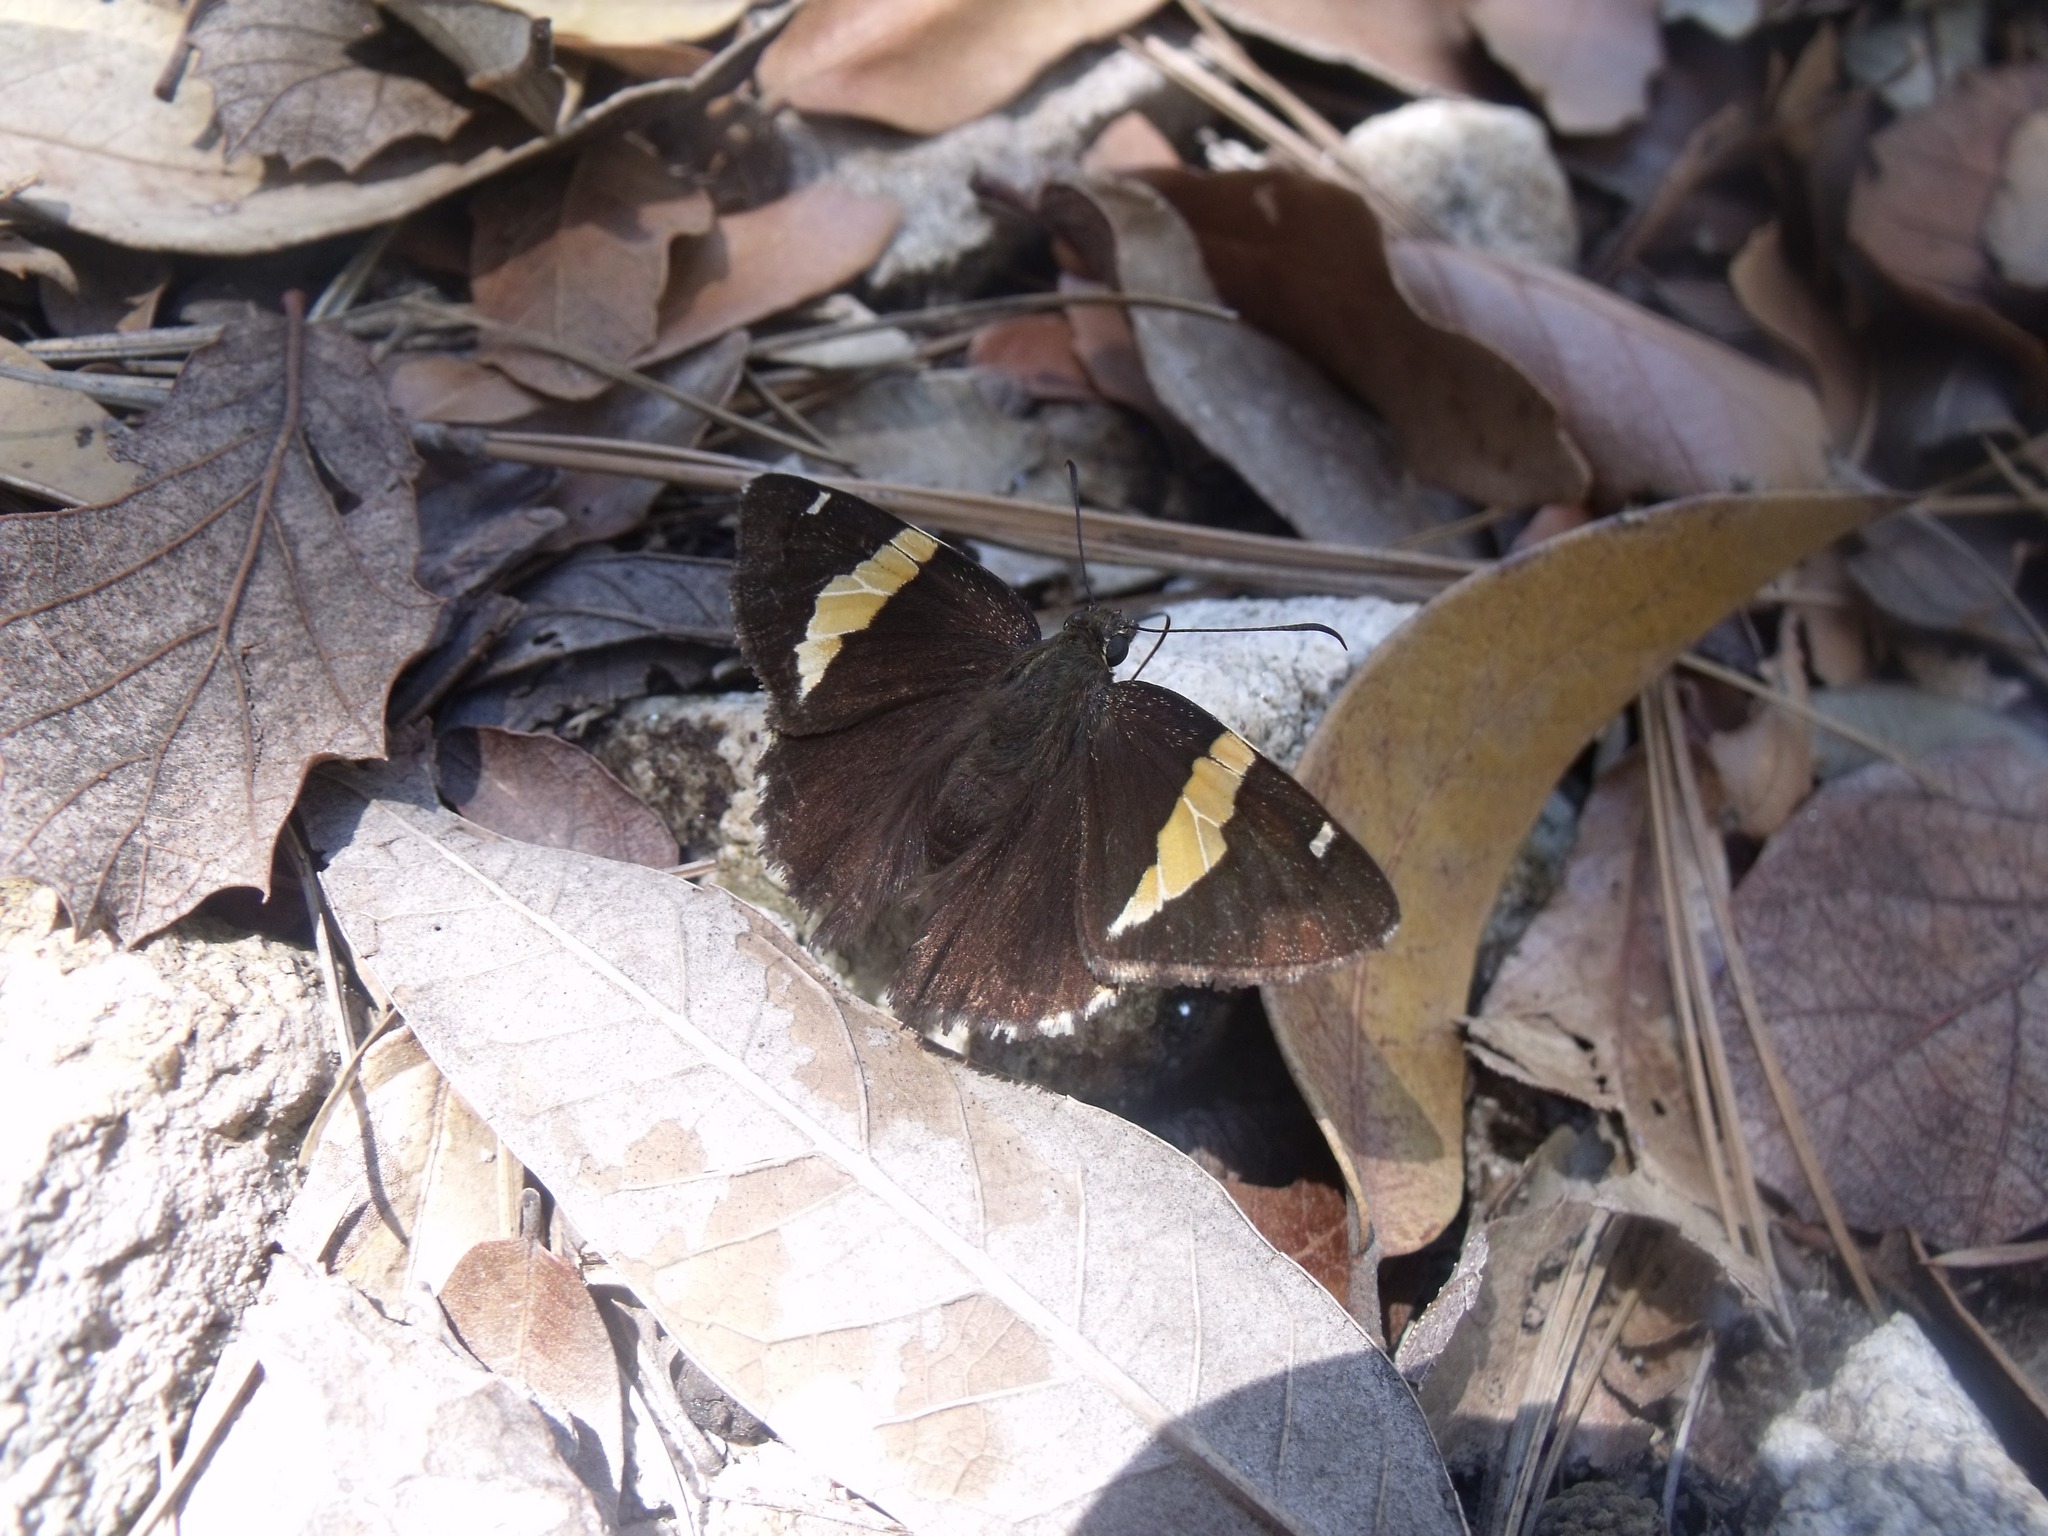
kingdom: Animalia
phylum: Arthropoda
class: Arachnida
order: Scorpiones
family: Bothriuridae
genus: Telegonus
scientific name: Telegonus cellus
